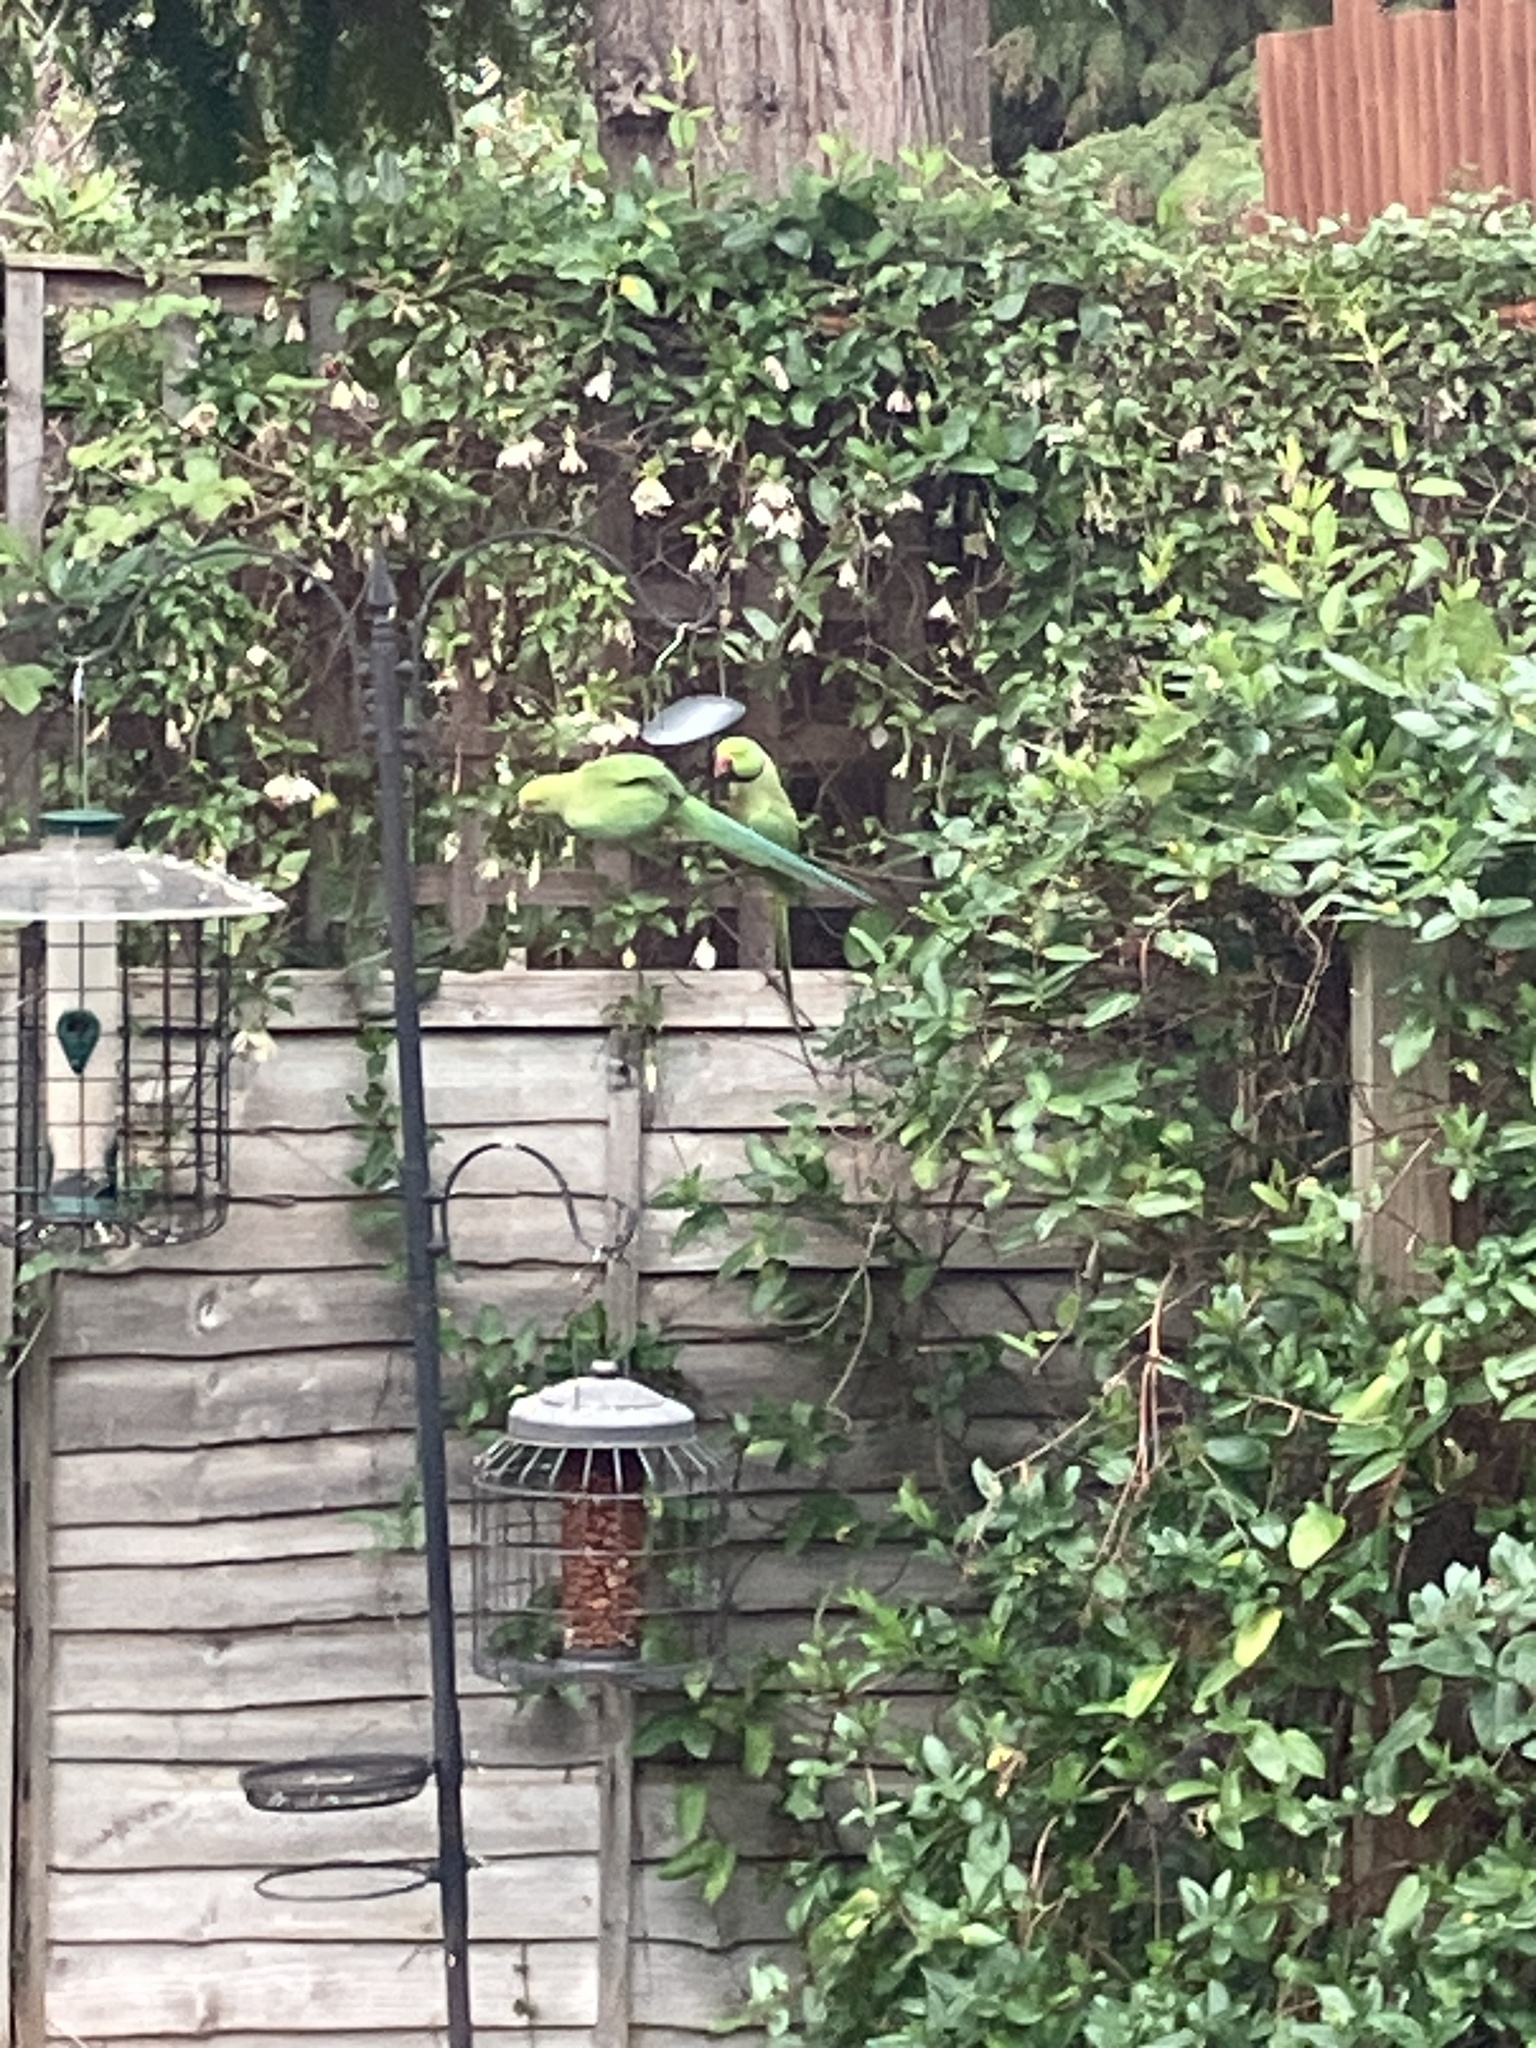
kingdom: Animalia
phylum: Chordata
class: Aves
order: Psittaciformes
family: Psittacidae
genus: Psittacula
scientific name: Psittacula krameri
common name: Rose-ringed parakeet
